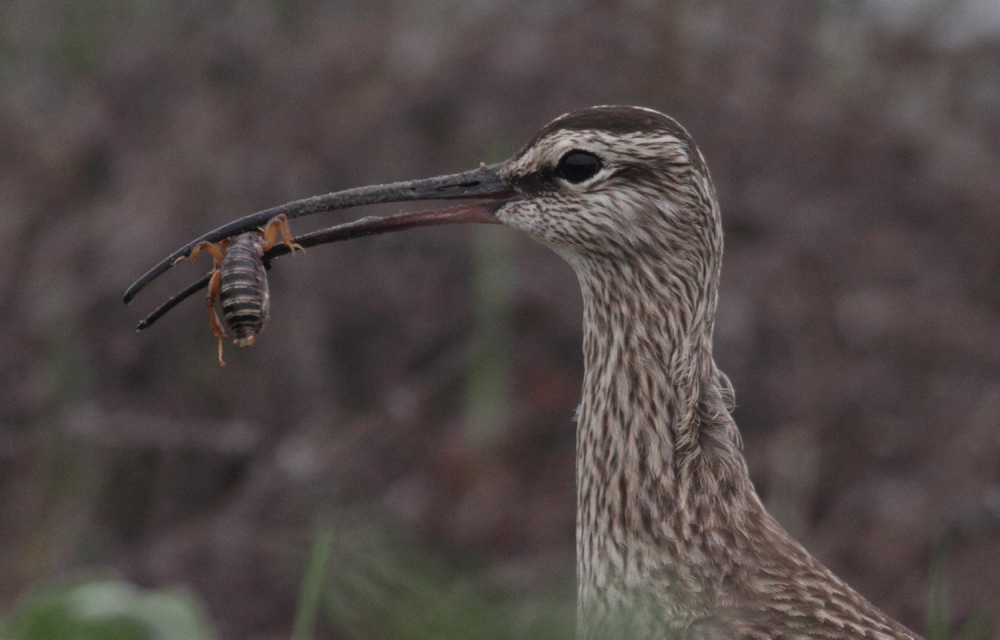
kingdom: Animalia
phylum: Chordata
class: Aves
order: Charadriiformes
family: Scolopacidae
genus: Numenius
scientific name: Numenius phaeopus
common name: Whimbrel
